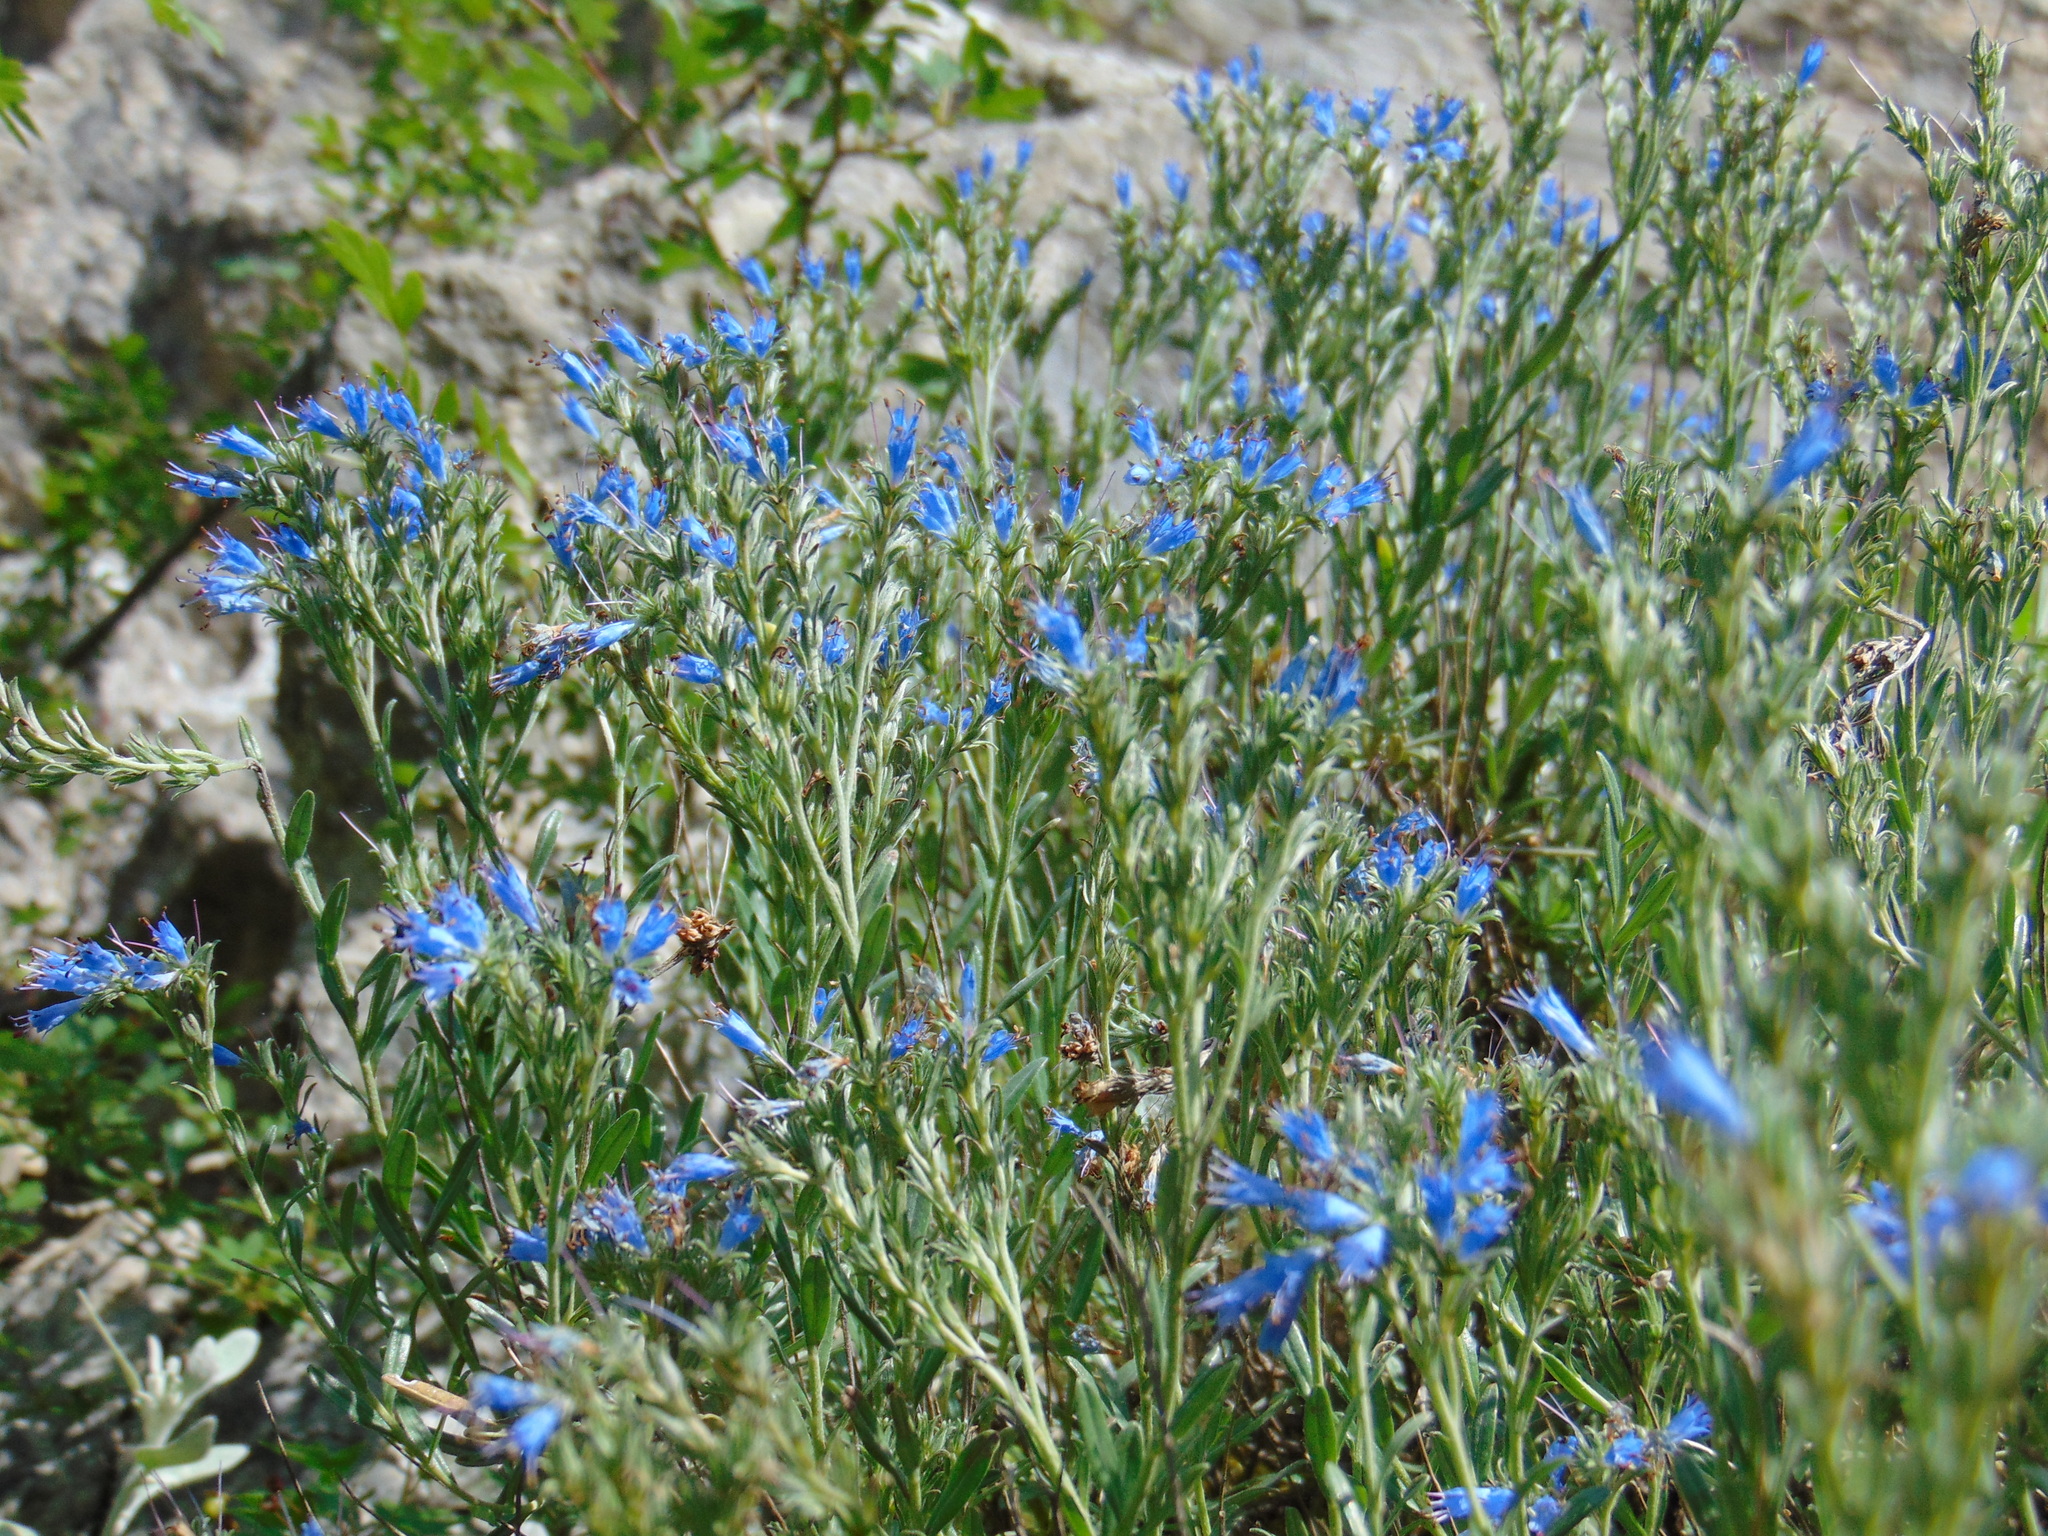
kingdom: Plantae
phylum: Tracheophyta
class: Magnoliopsida
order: Boraginales
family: Boraginaceae
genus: Moltkia
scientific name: Moltkia petraea
